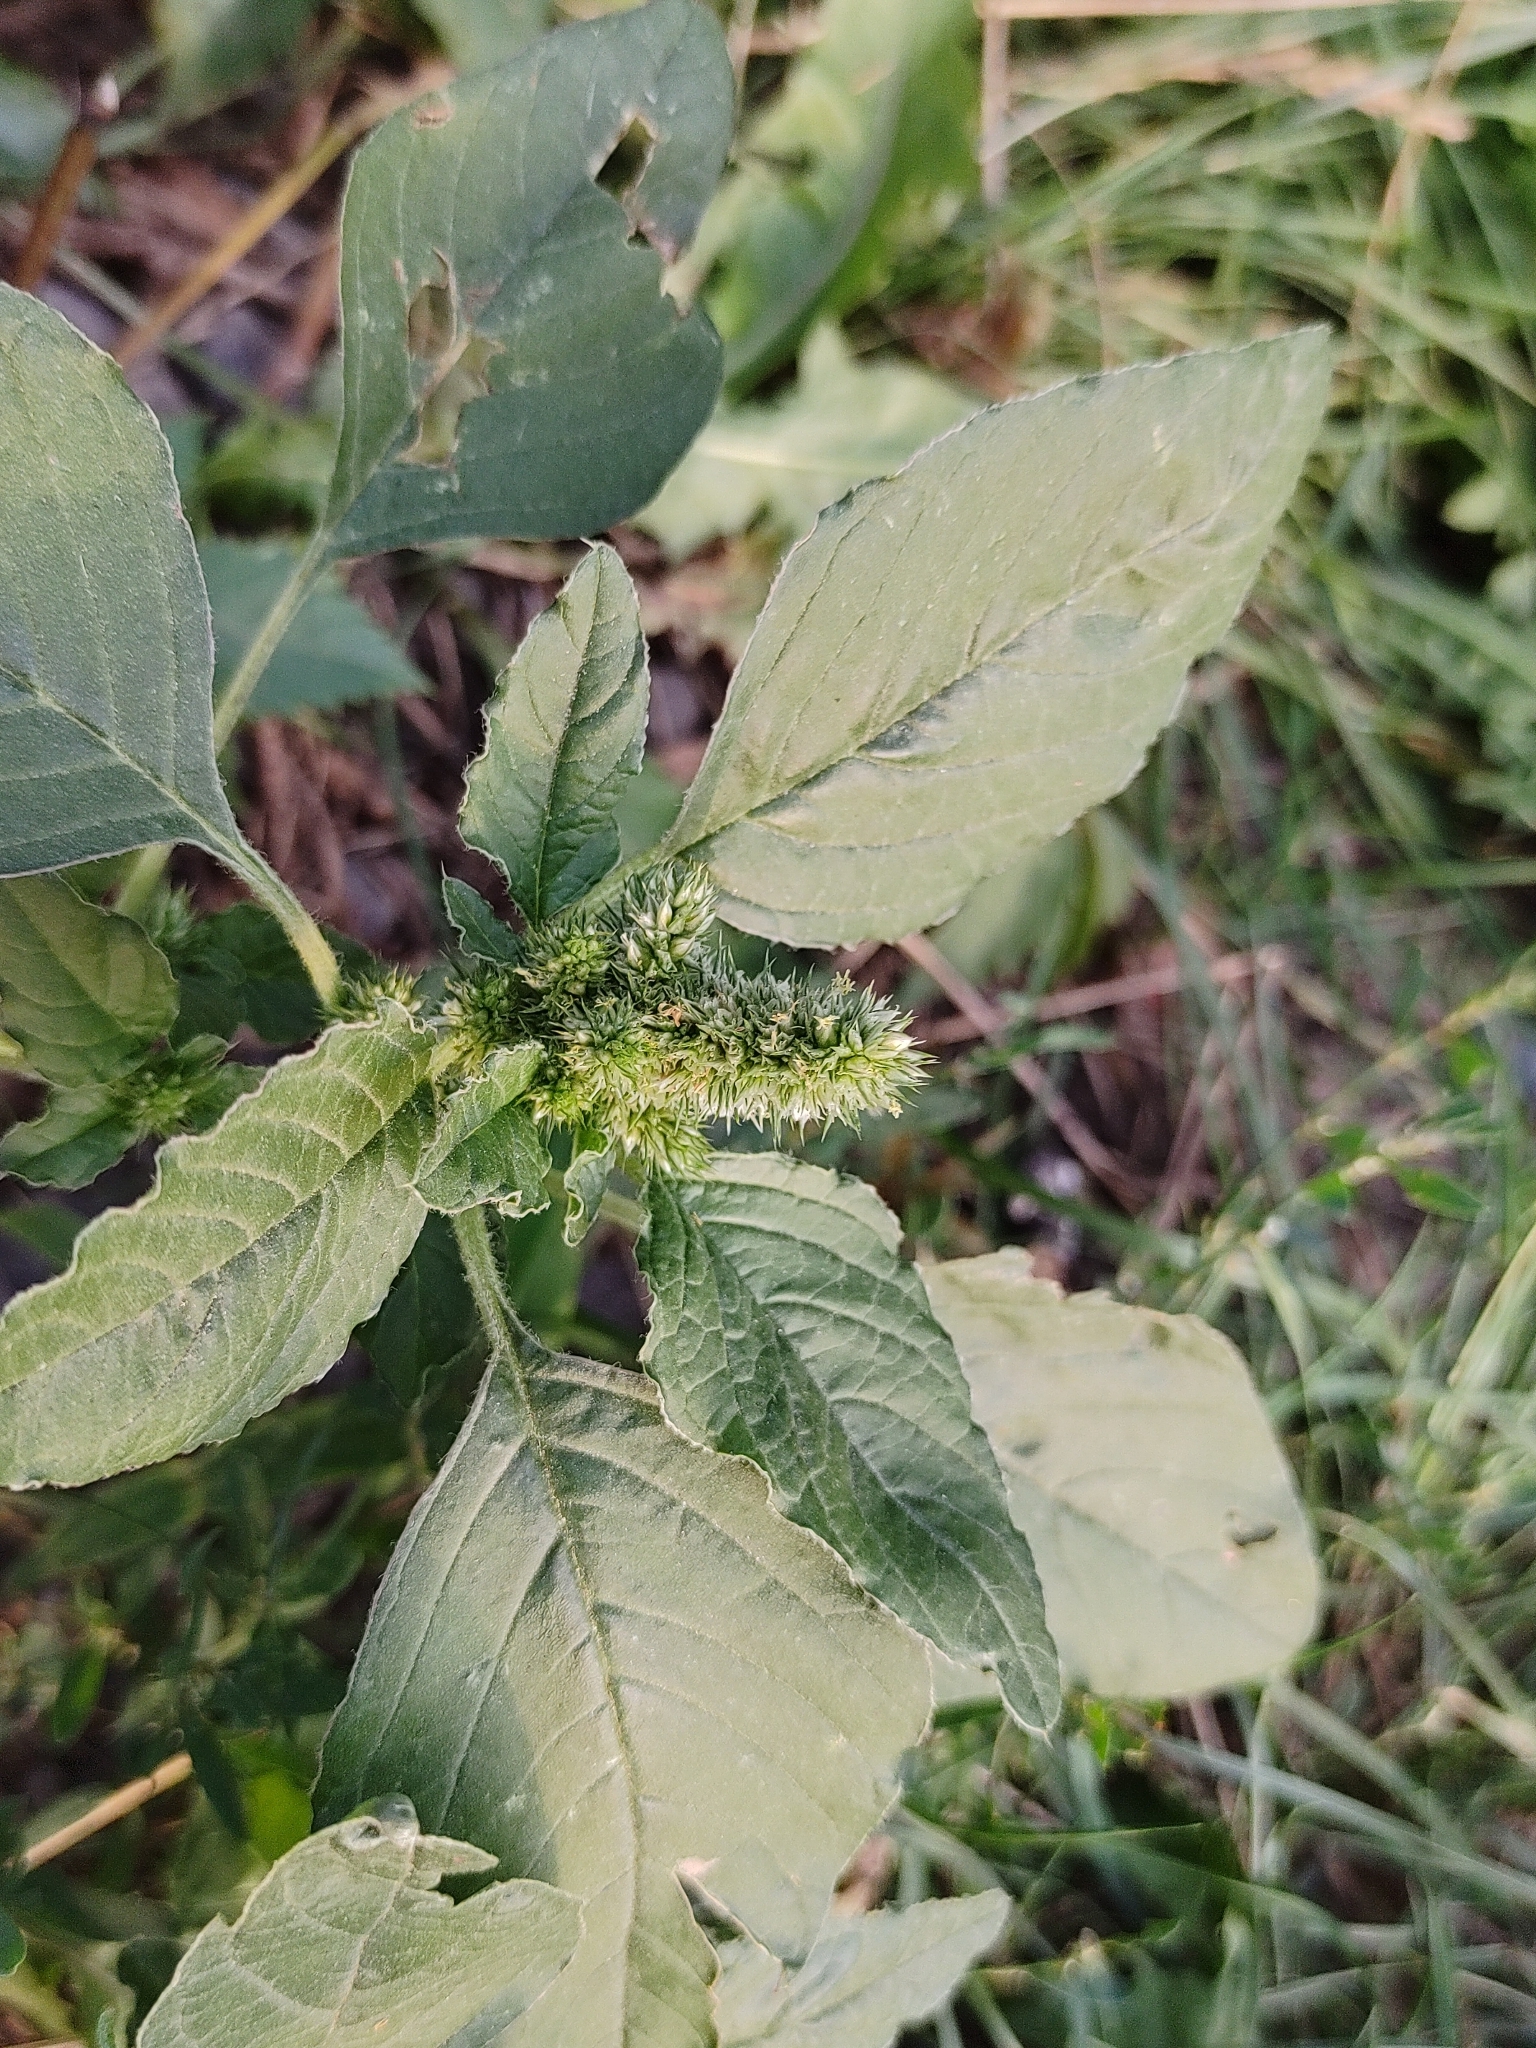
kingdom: Plantae
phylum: Tracheophyta
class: Magnoliopsida
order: Caryophyllales
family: Amaranthaceae
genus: Amaranthus
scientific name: Amaranthus retroflexus
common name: Redroot amaranth
